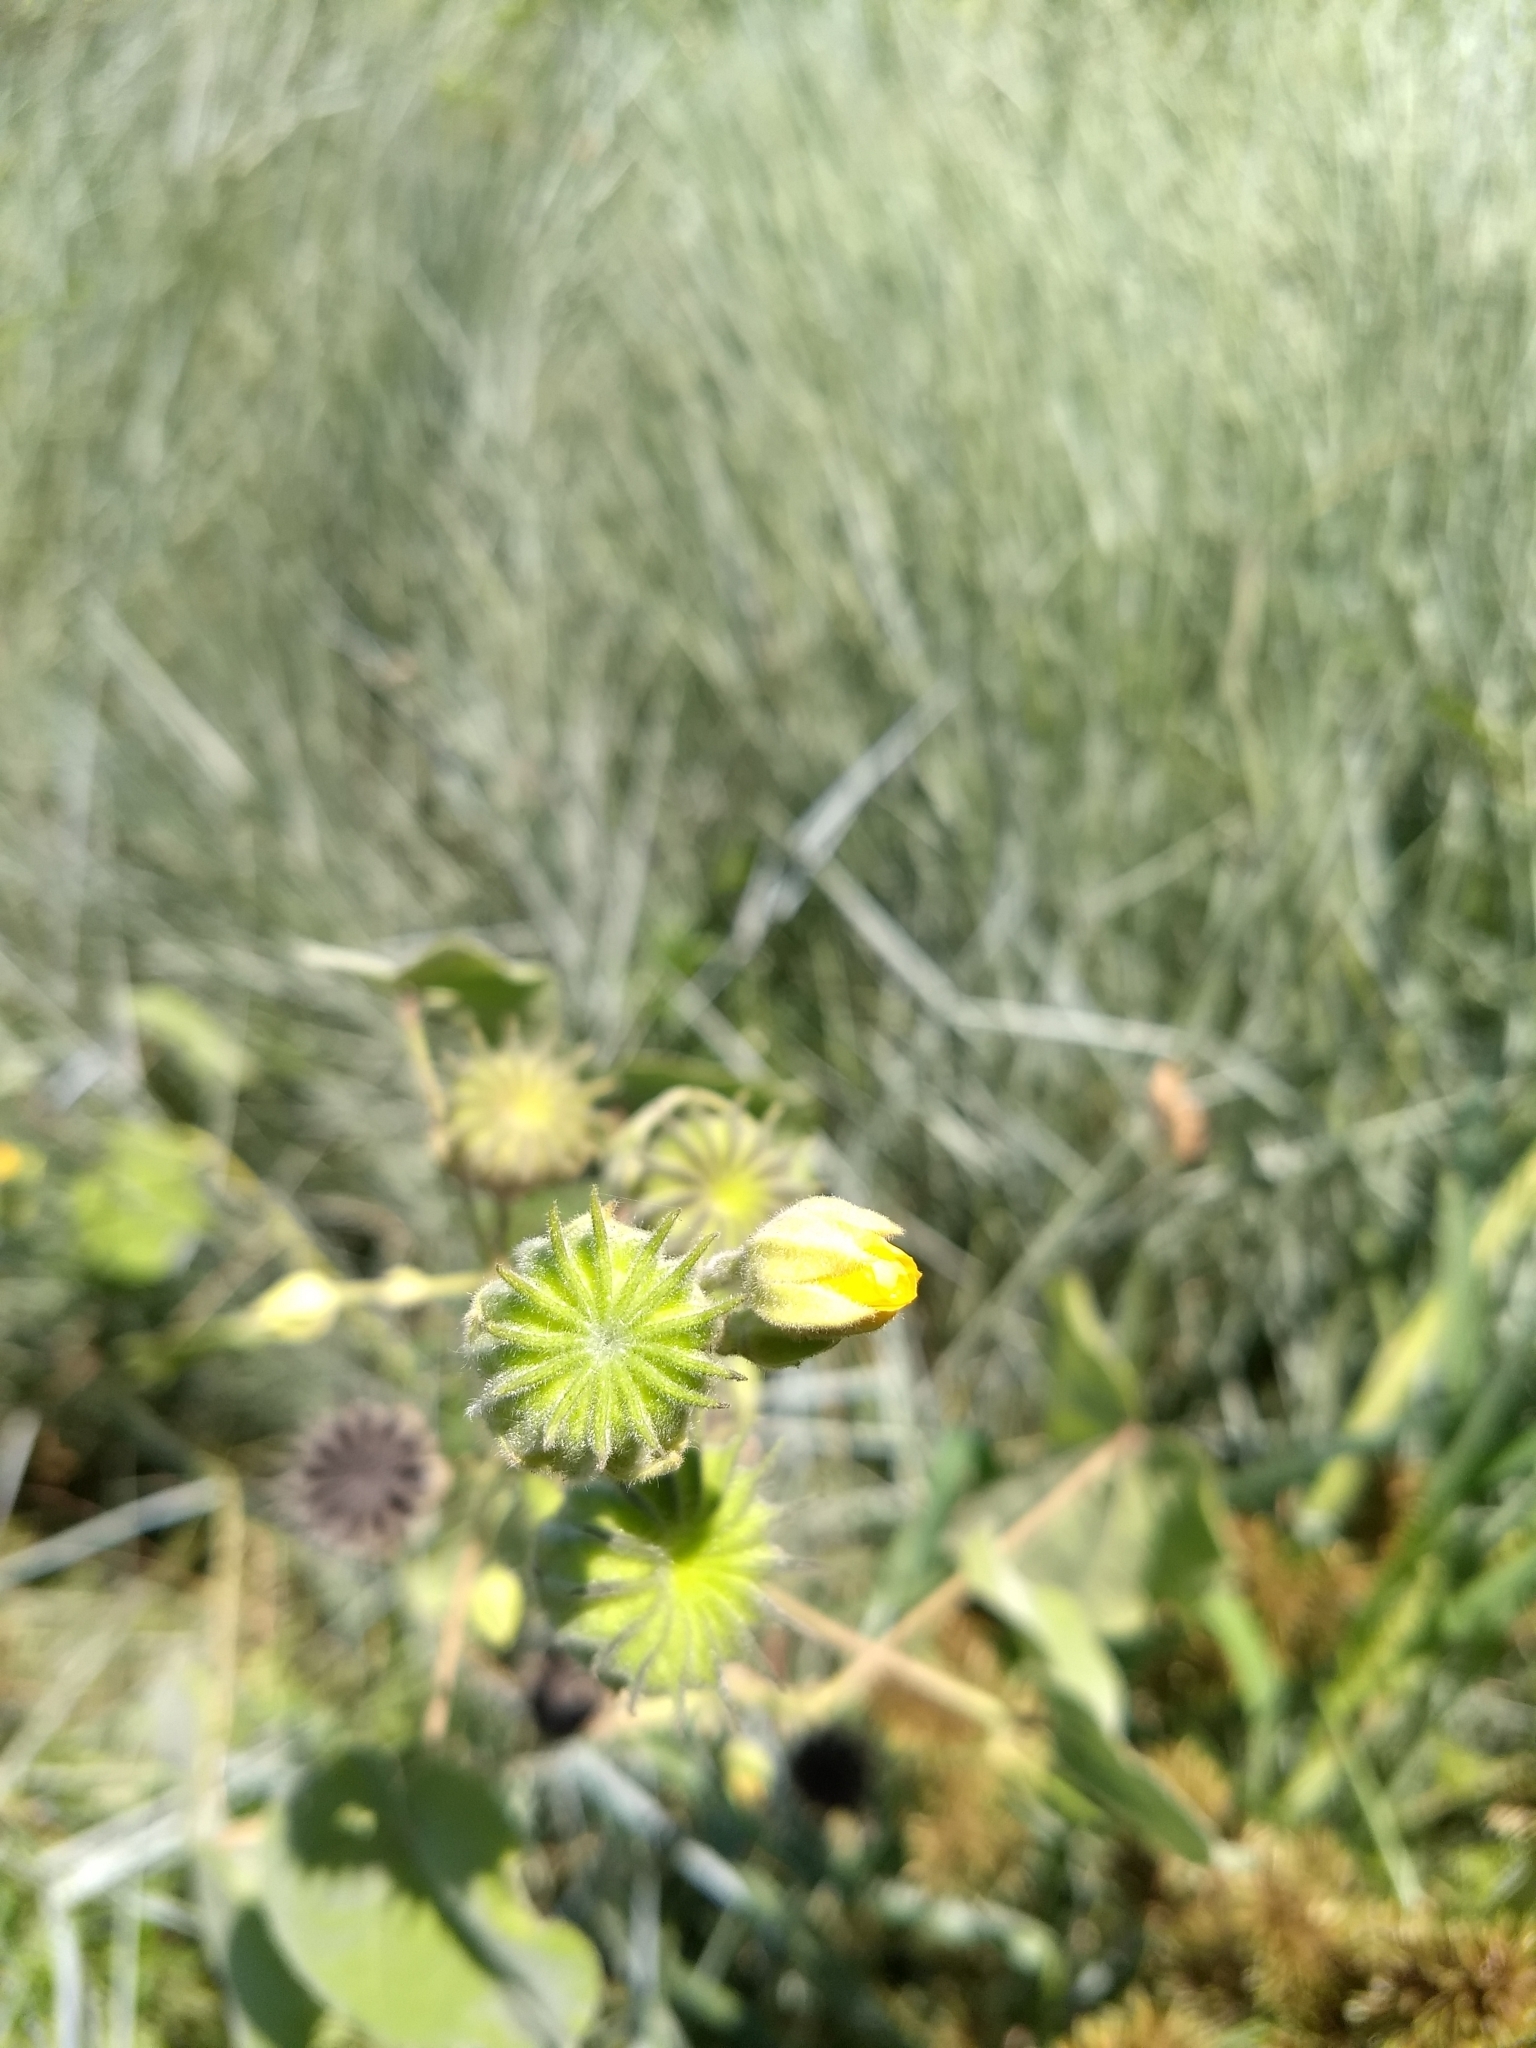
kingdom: Plantae
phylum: Tracheophyta
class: Magnoliopsida
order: Malvales
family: Malvaceae
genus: Abutilon
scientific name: Abutilon theophrasti
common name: Velvetleaf
